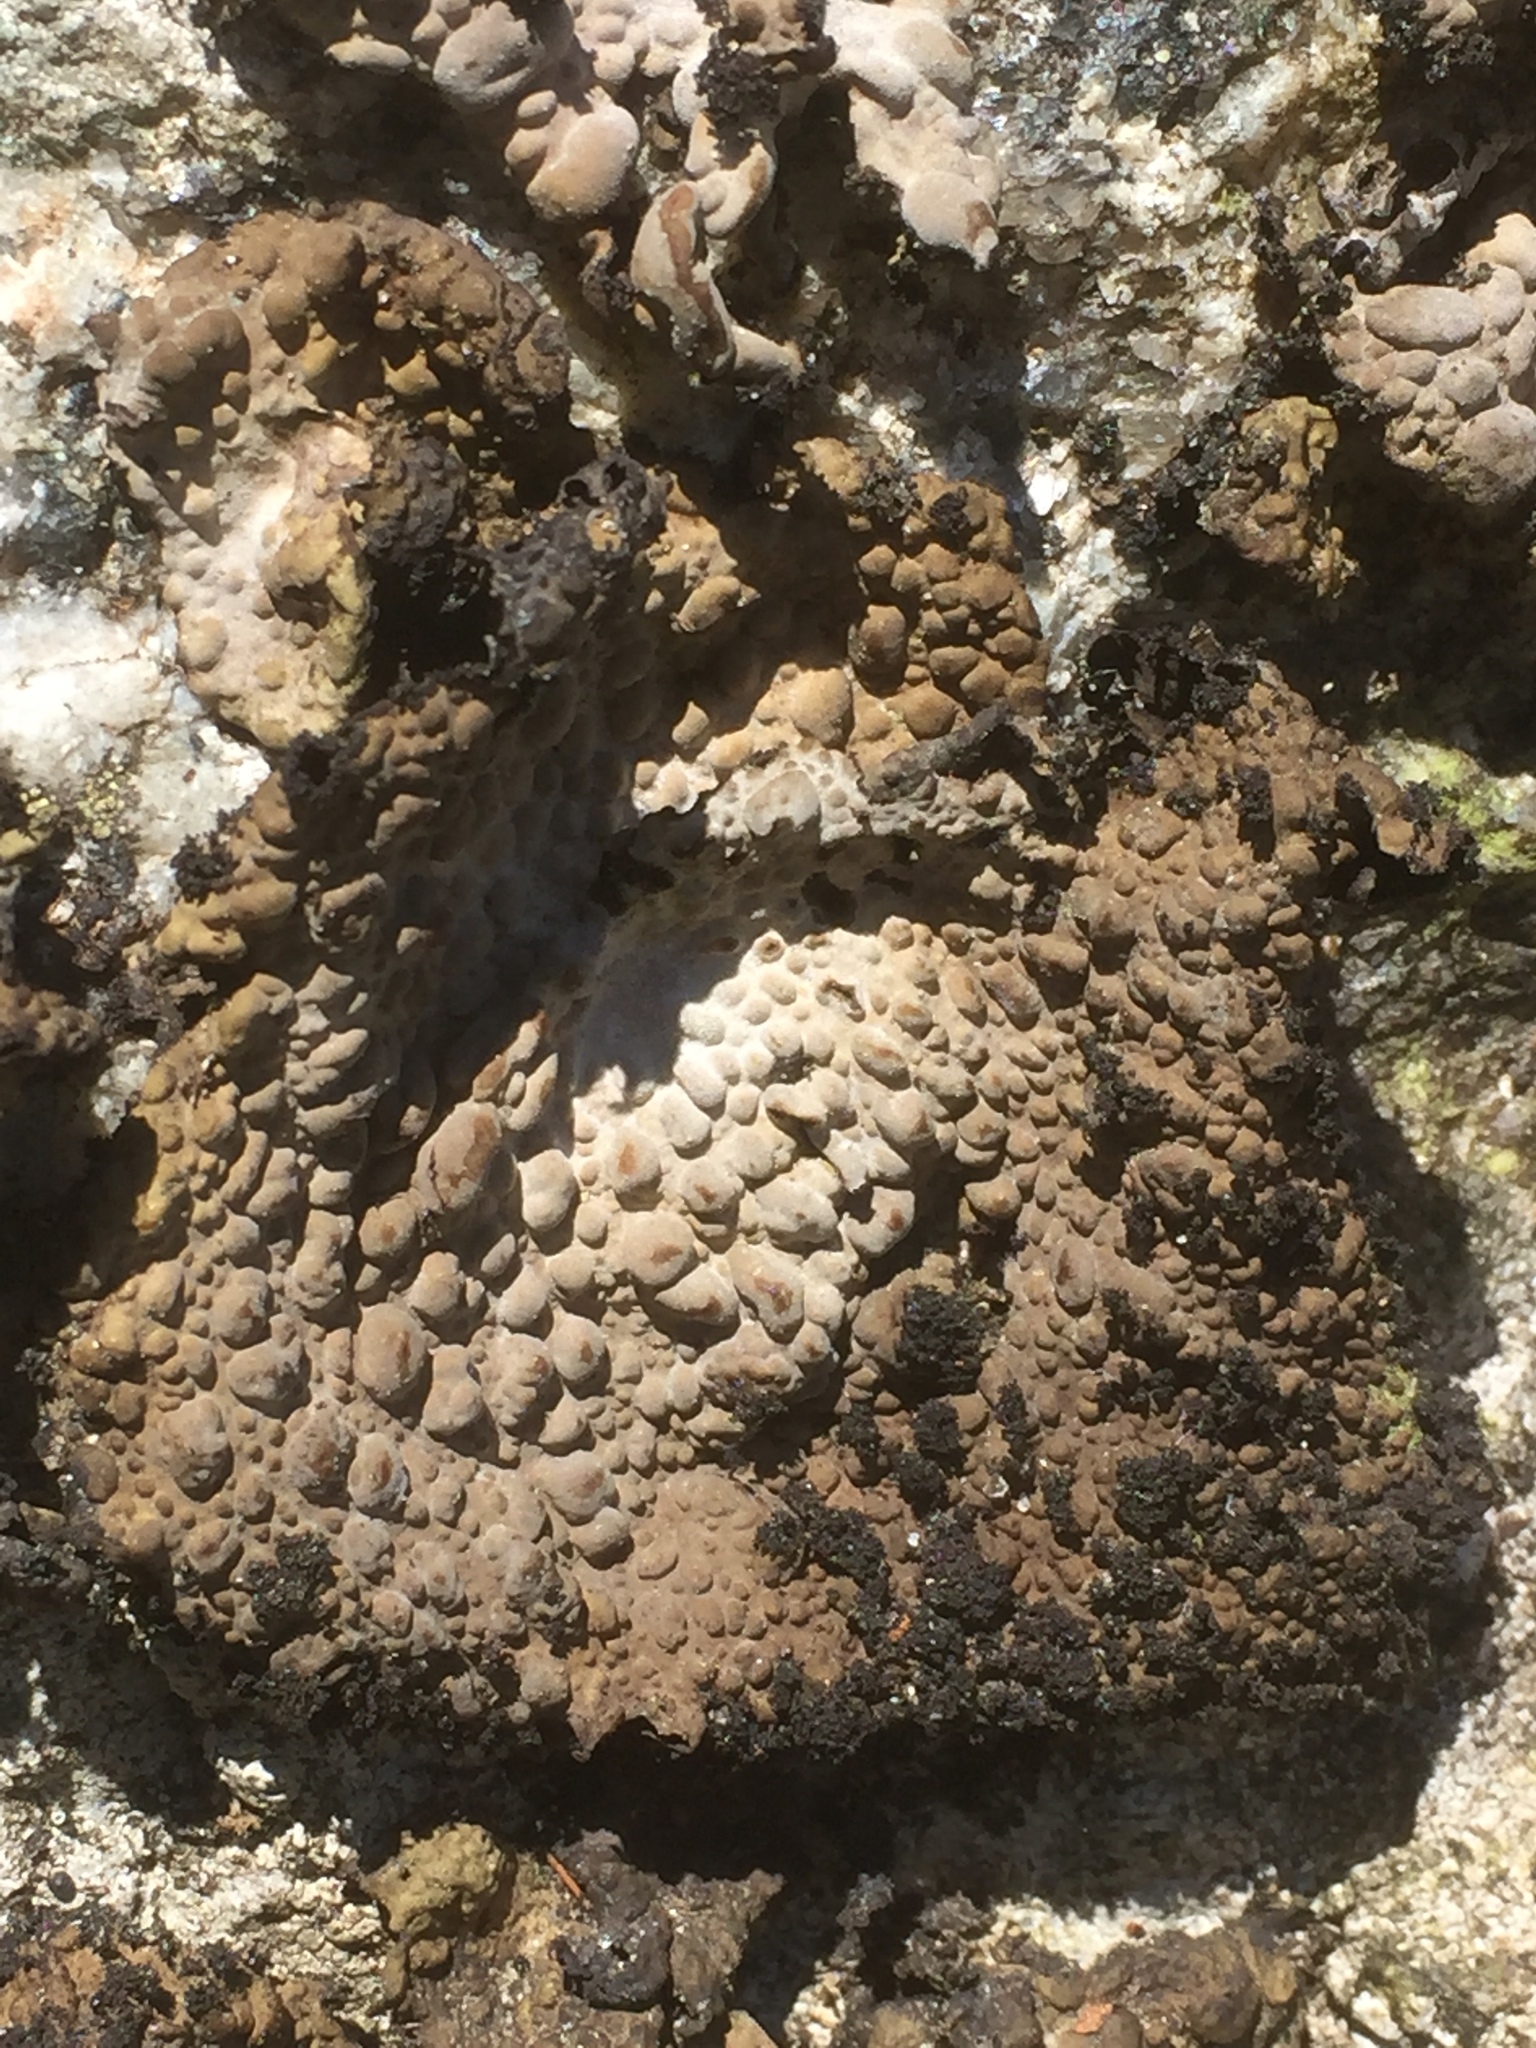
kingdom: Fungi
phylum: Ascomycota
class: Lecanoromycetes
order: Umbilicariales
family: Umbilicariaceae
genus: Lasallia
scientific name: Lasallia pustulata
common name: Blistered toadskin lichen
